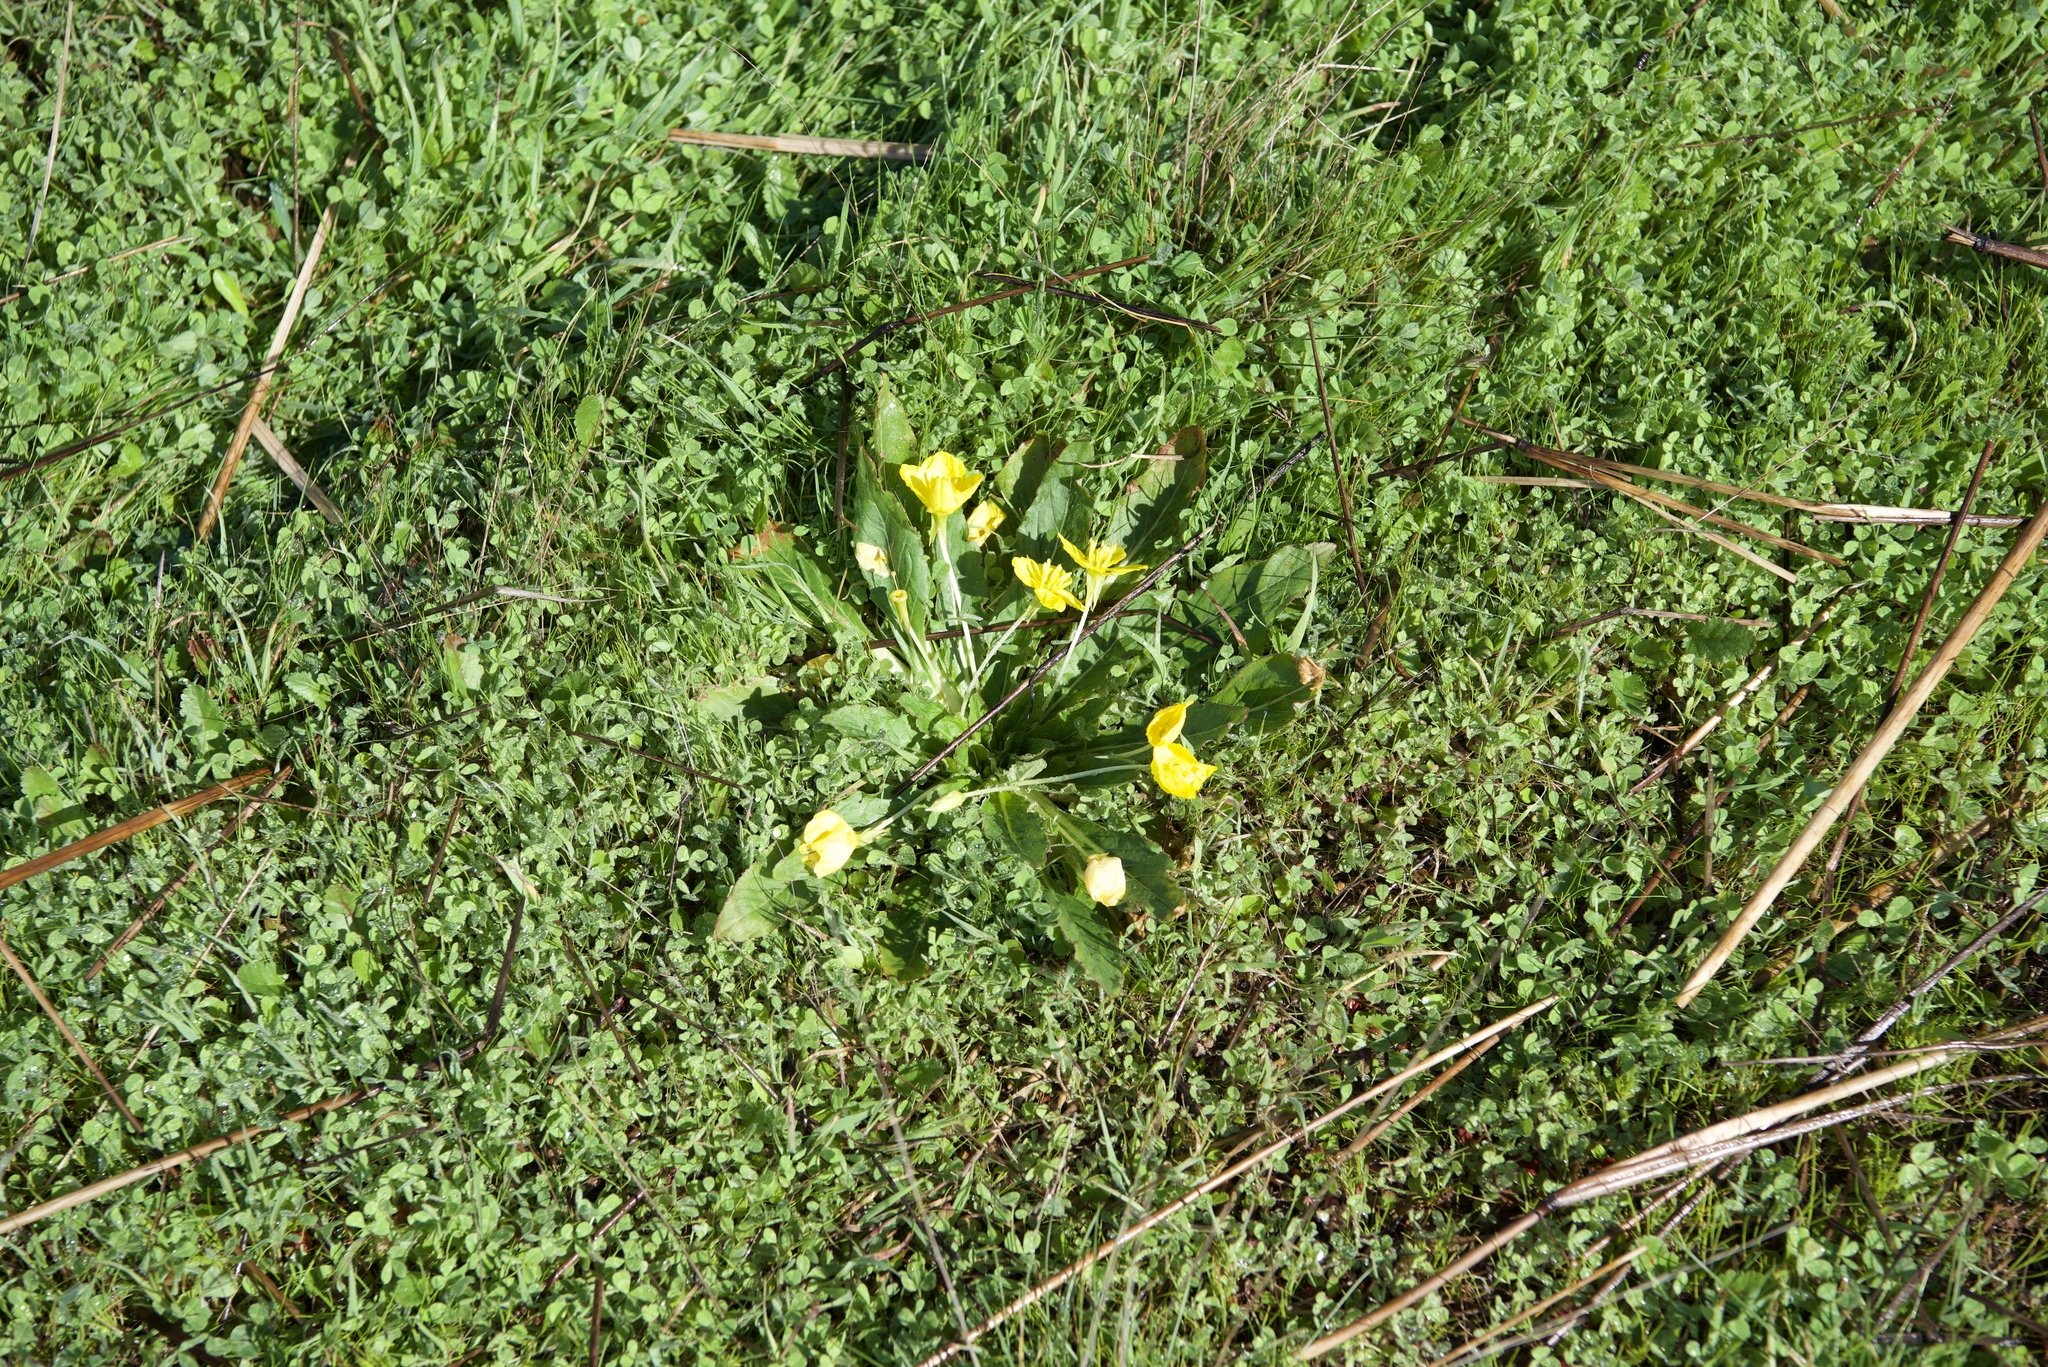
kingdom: Plantae
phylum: Tracheophyta
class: Magnoliopsida
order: Myrtales
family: Onagraceae
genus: Taraxia
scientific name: Taraxia ovata
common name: Goldeneggs
